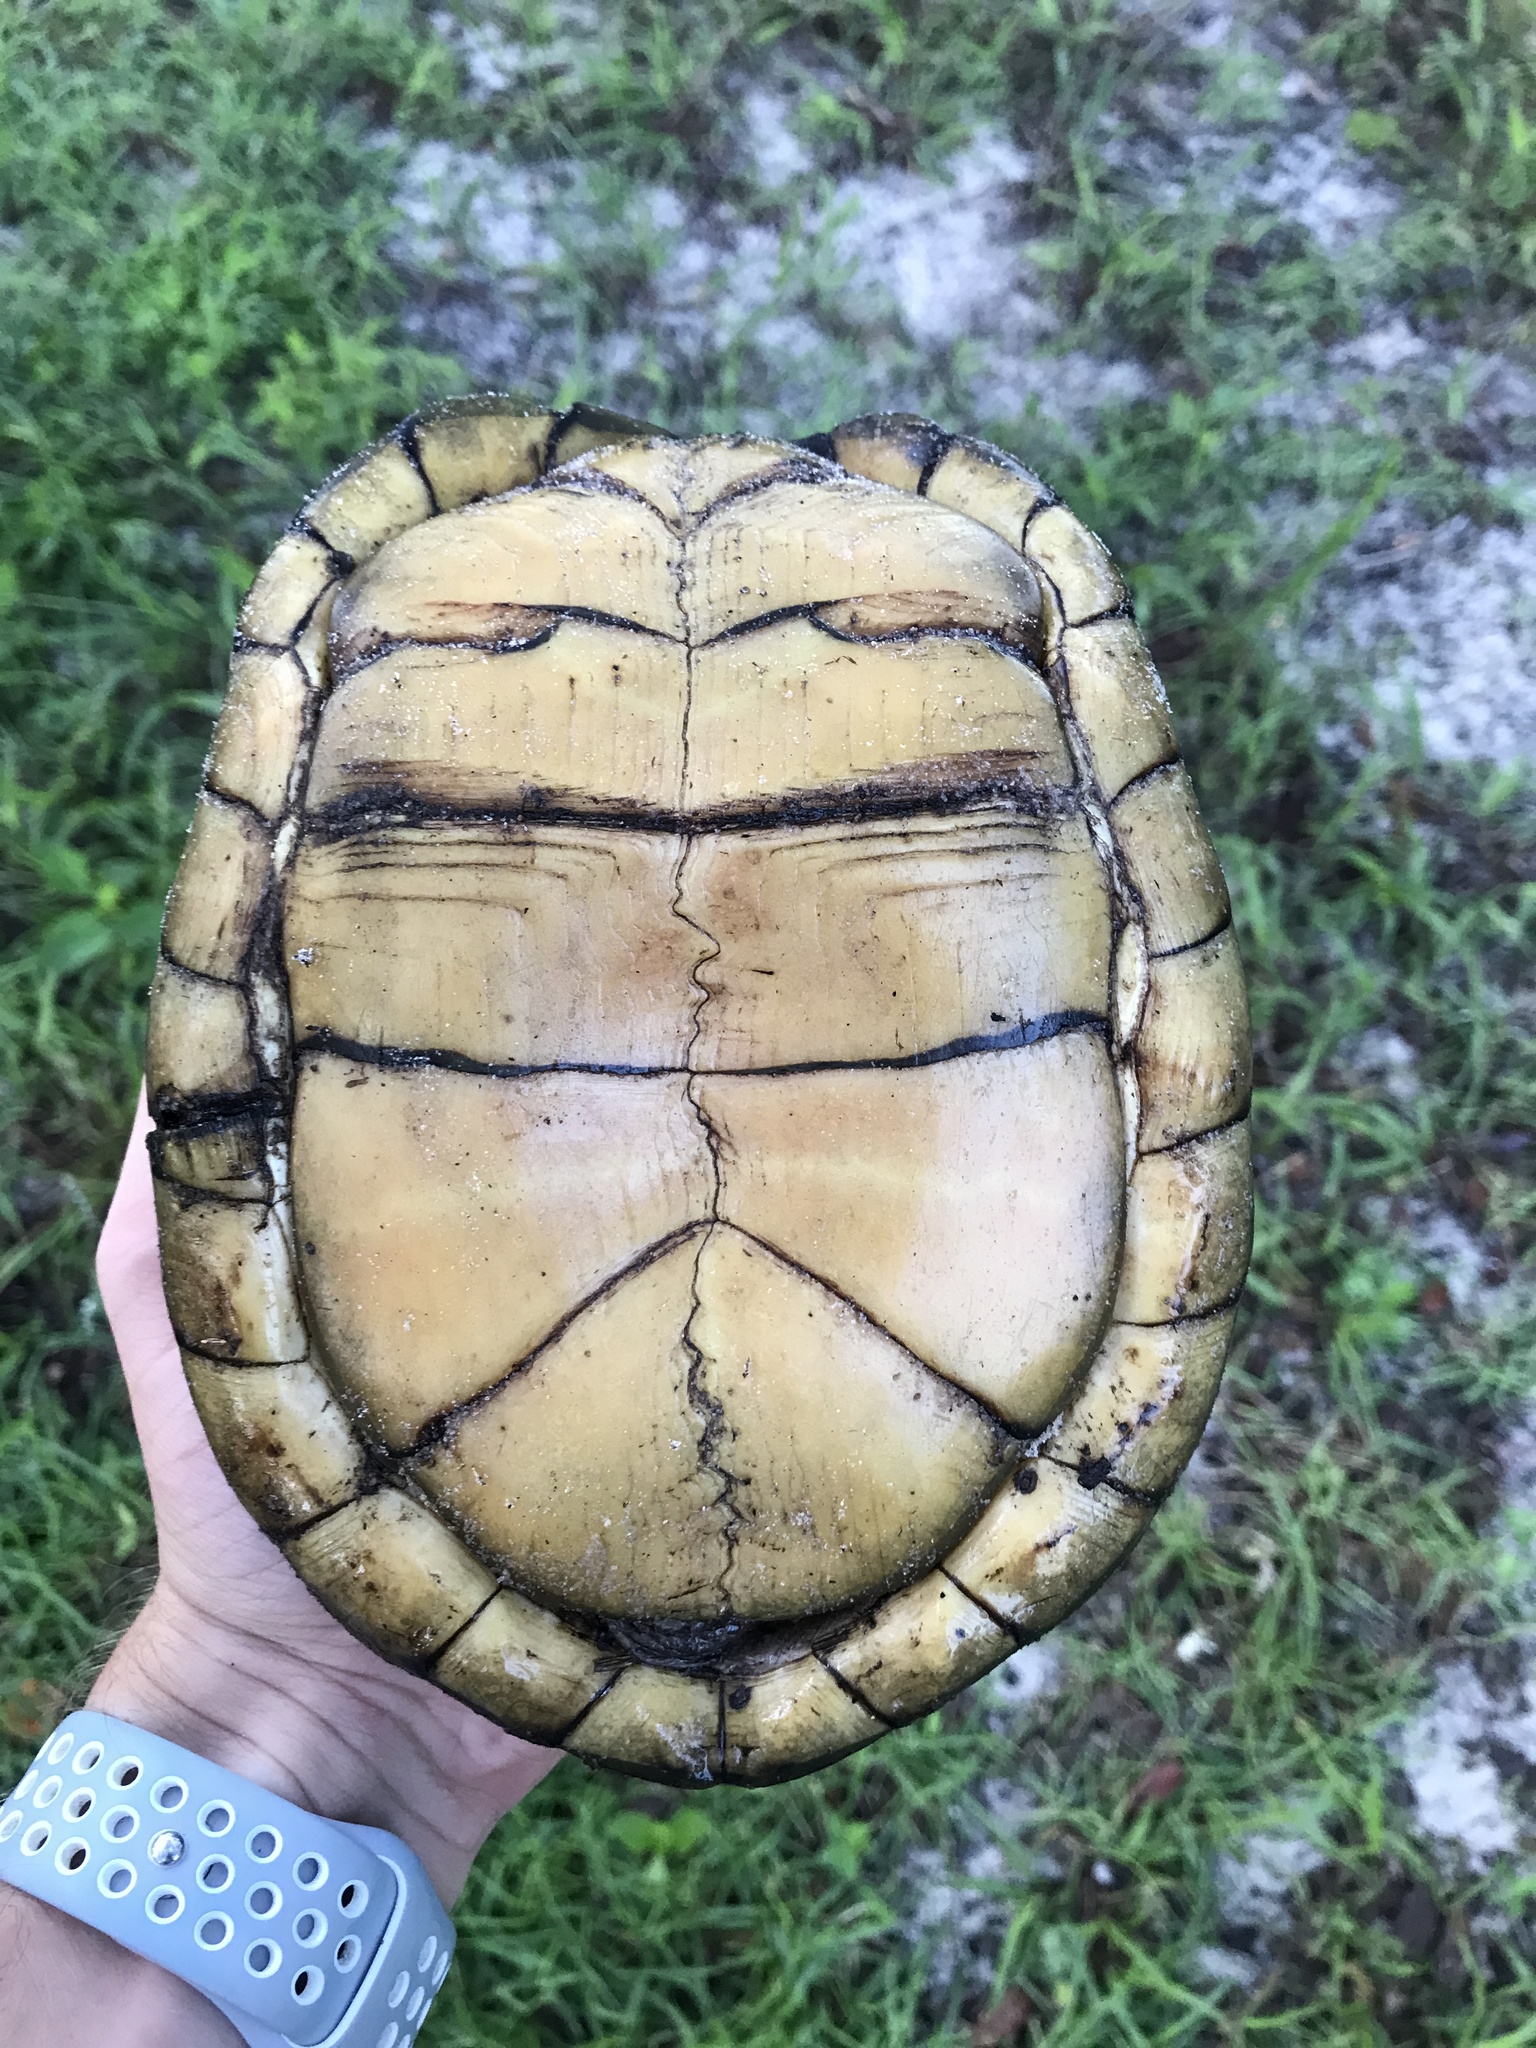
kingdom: Animalia
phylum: Chordata
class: Testudines
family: Emydidae
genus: Terrapene
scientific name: Terrapene carolina
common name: Common box turtle
